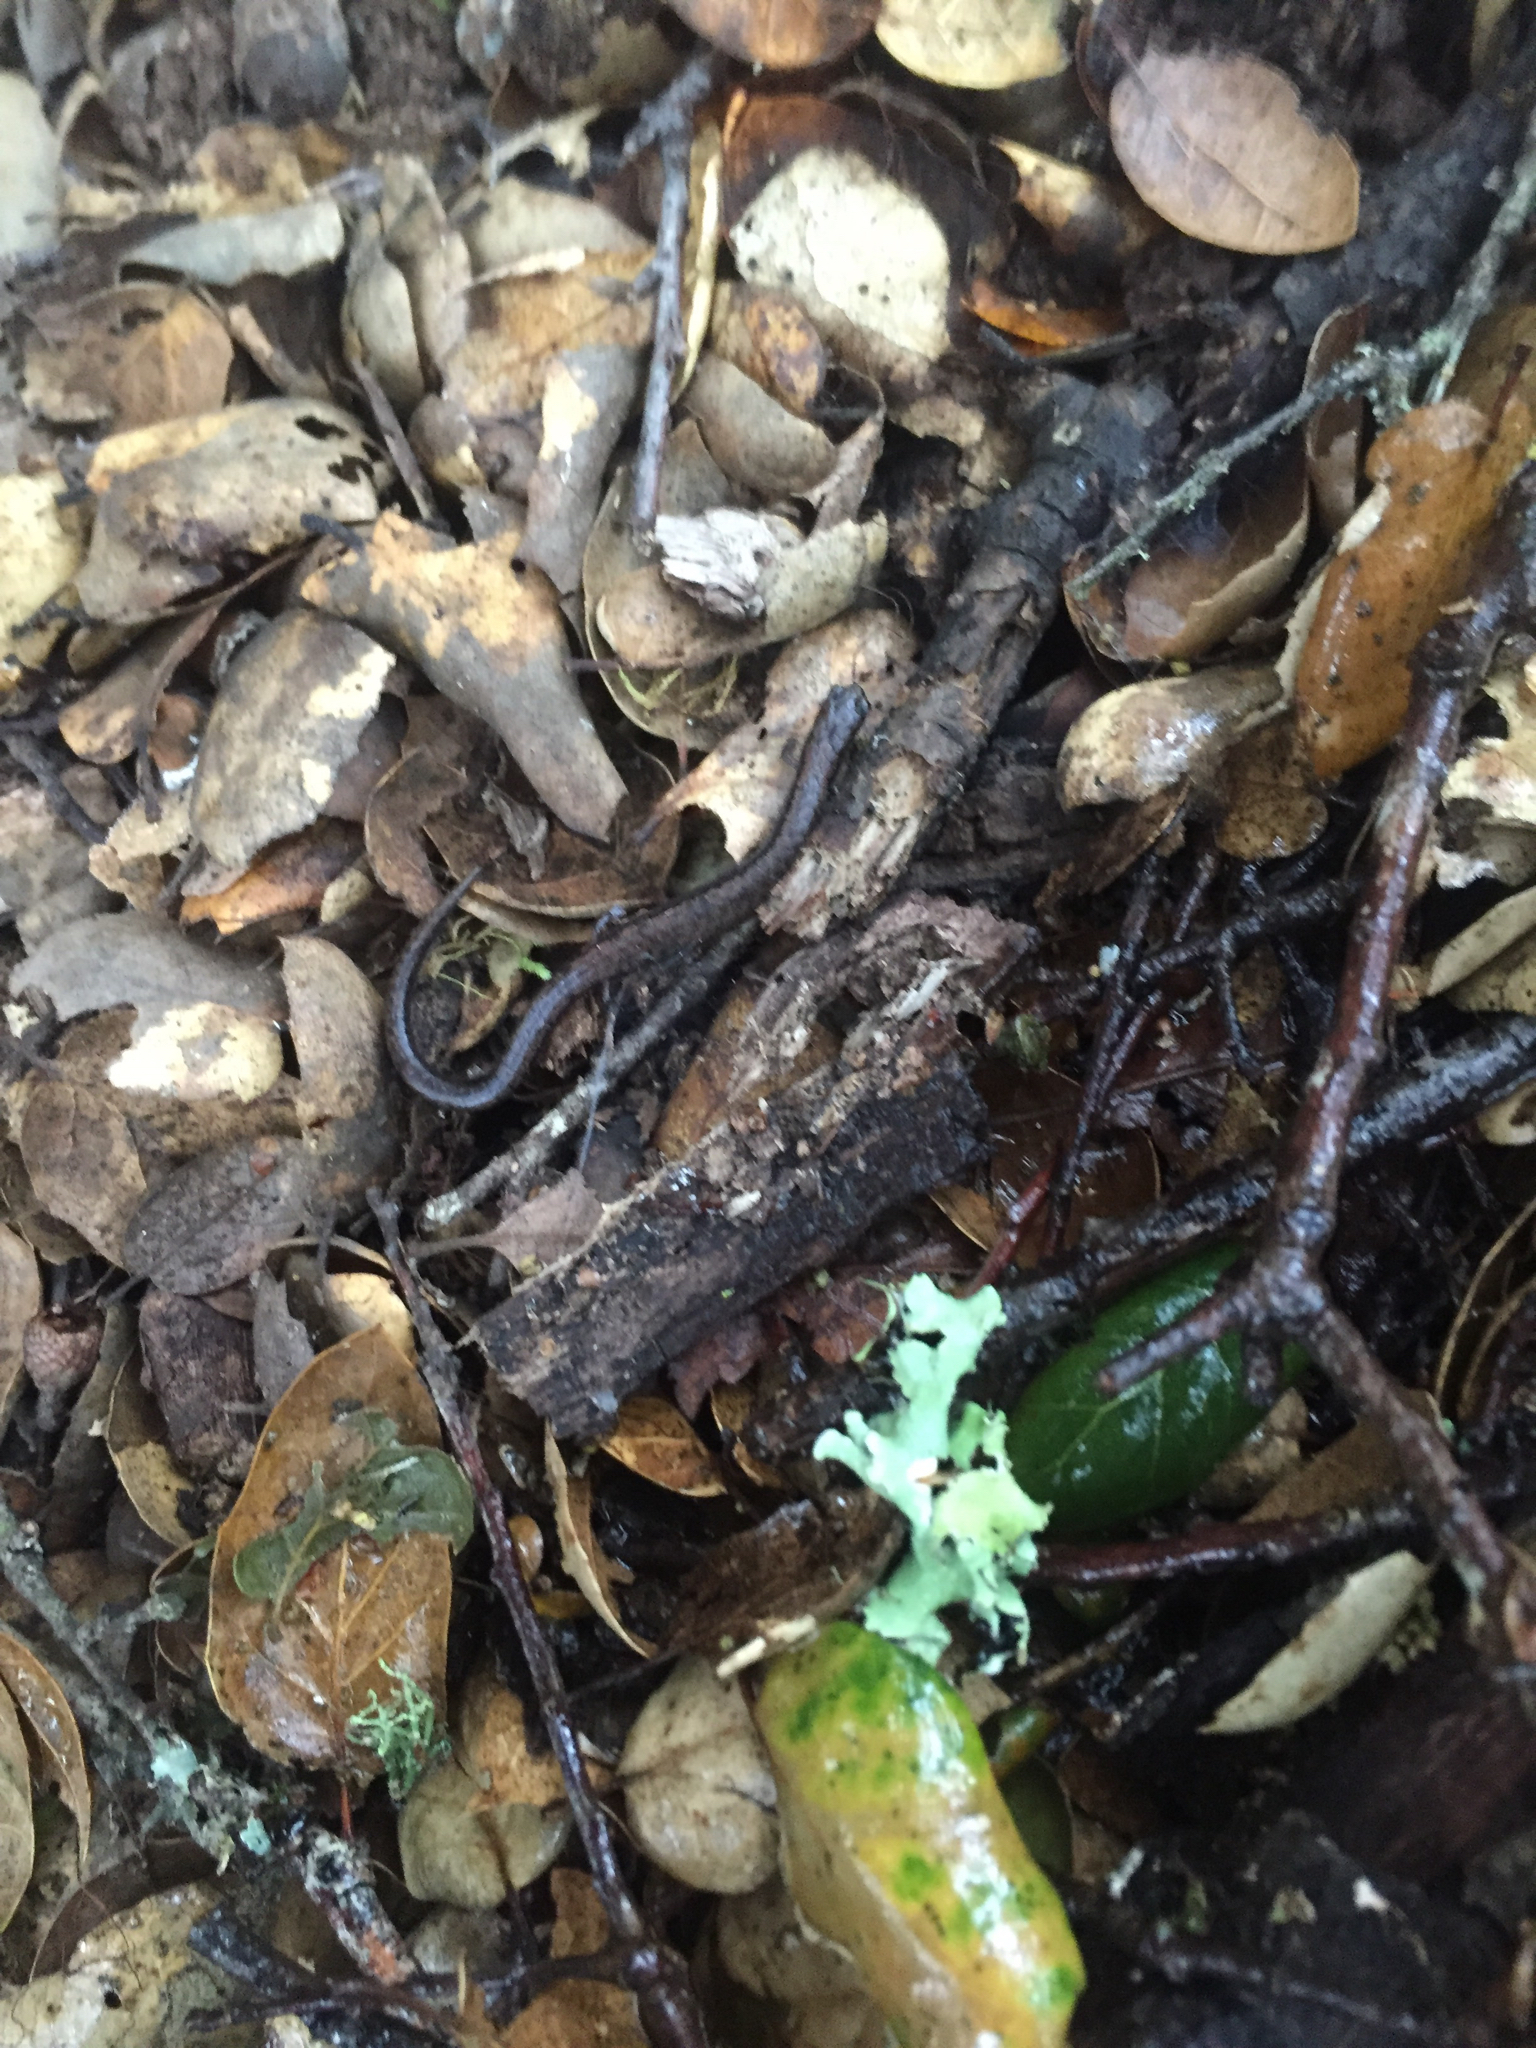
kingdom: Animalia
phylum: Chordata
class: Amphibia
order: Caudata
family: Plethodontidae
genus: Batrachoseps
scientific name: Batrachoseps attenuatus
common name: California slender salamander
